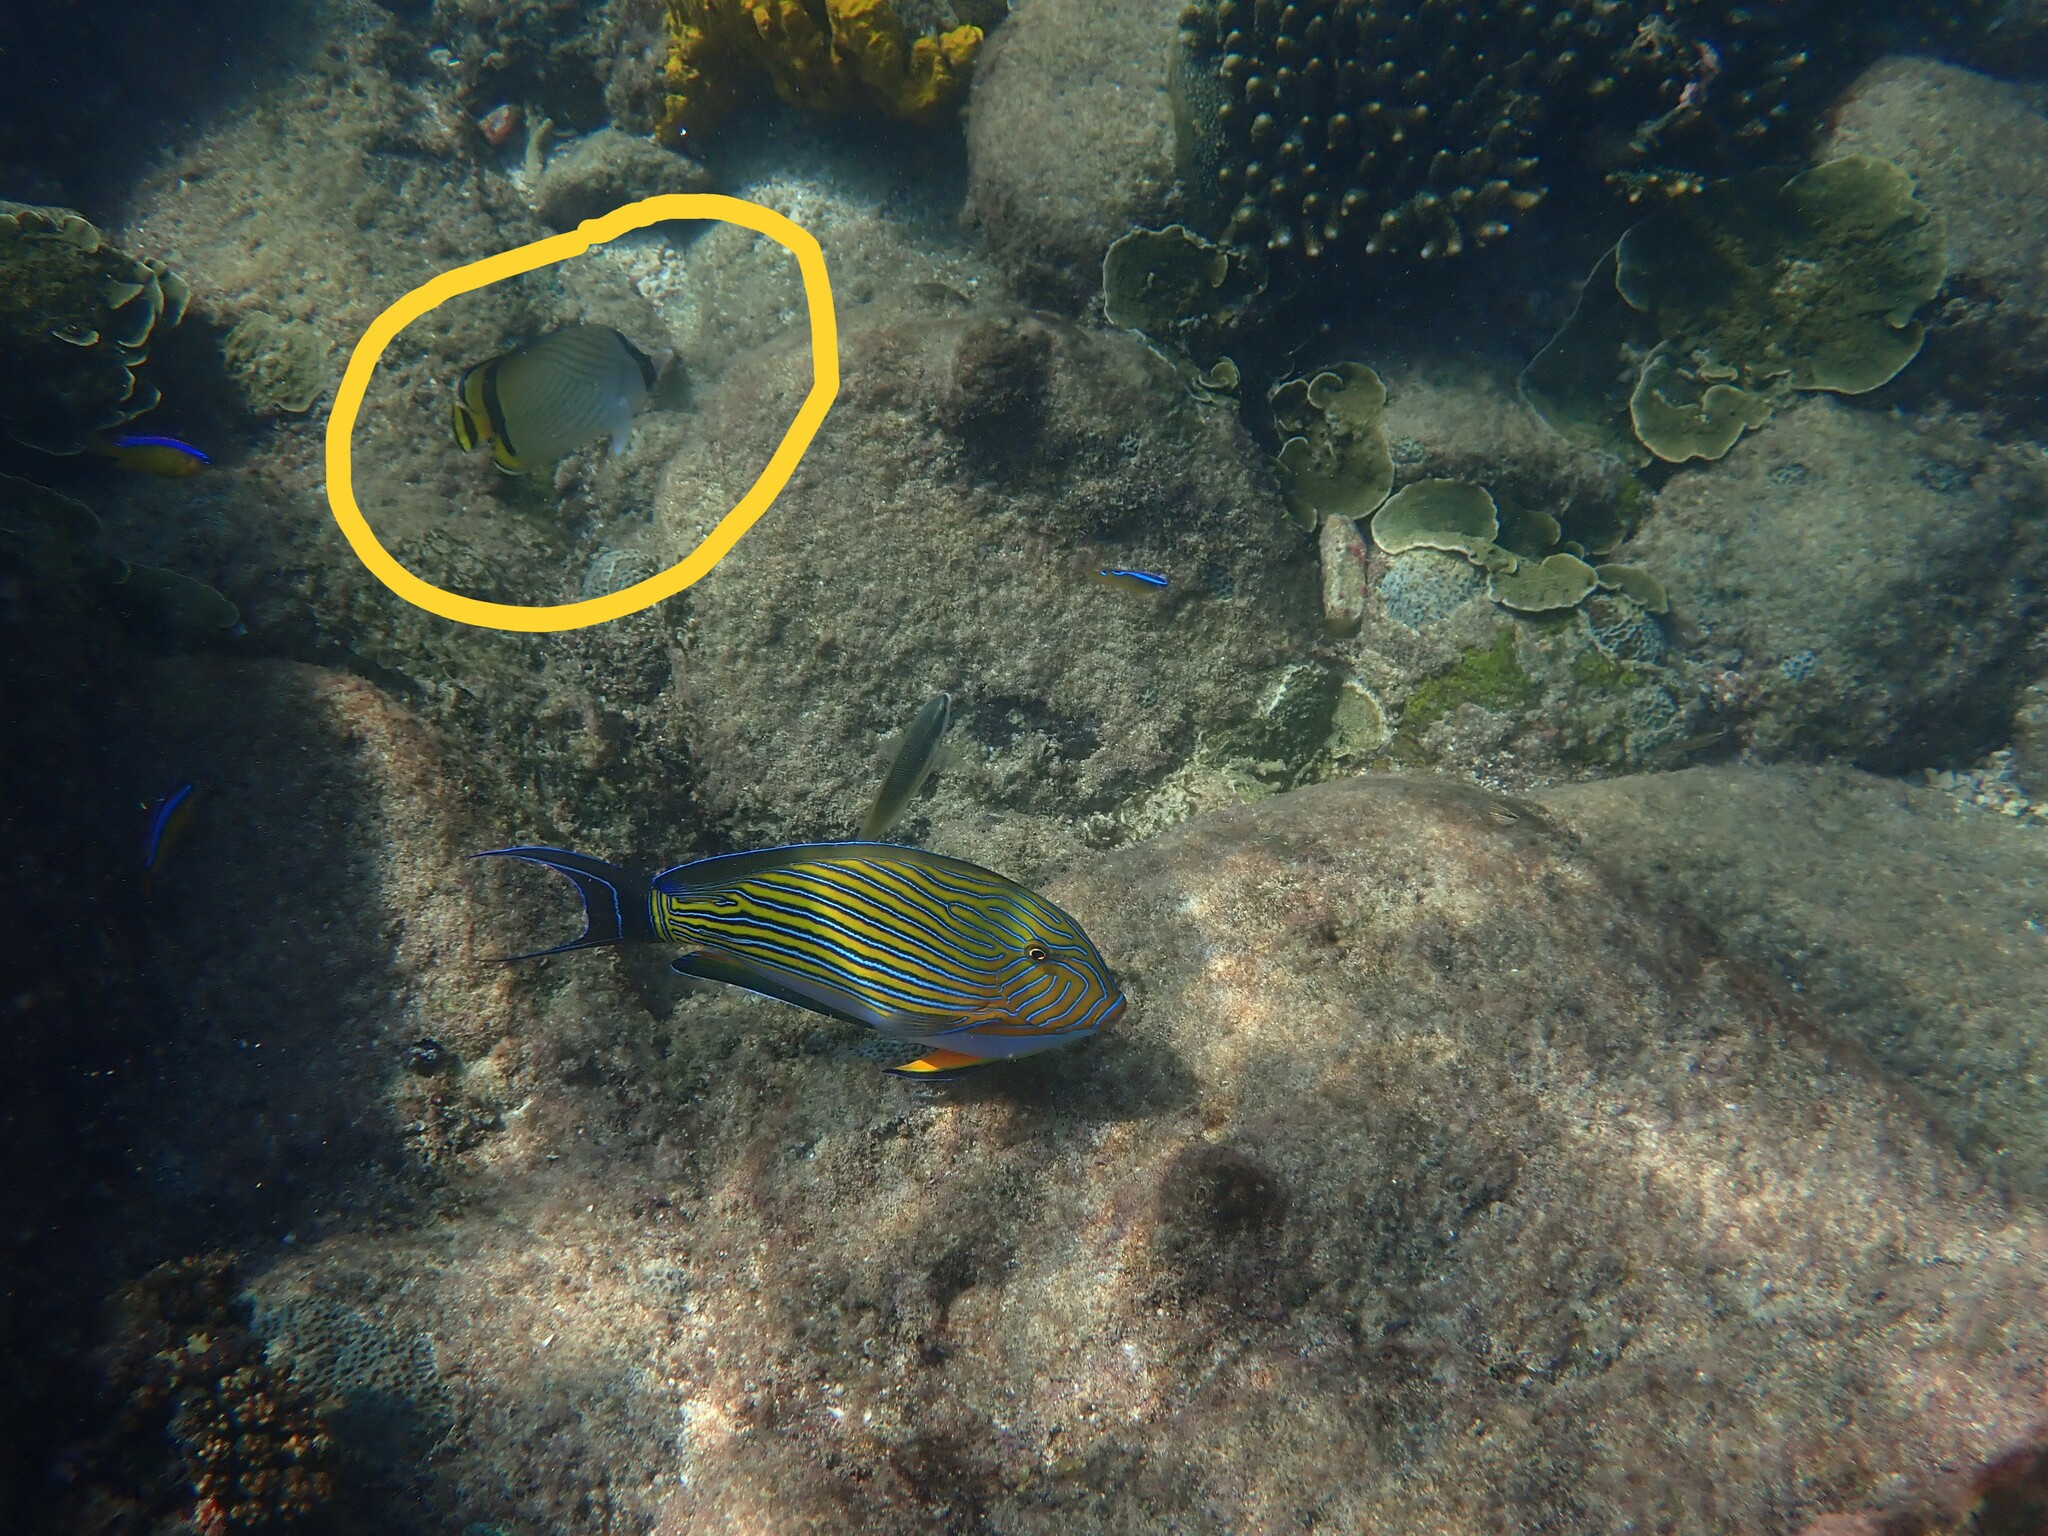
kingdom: Animalia
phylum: Chordata
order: Perciformes
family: Chaetodontidae
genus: Chaetodon
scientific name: Chaetodon vagabundus
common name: Vagabond butterflyfish
